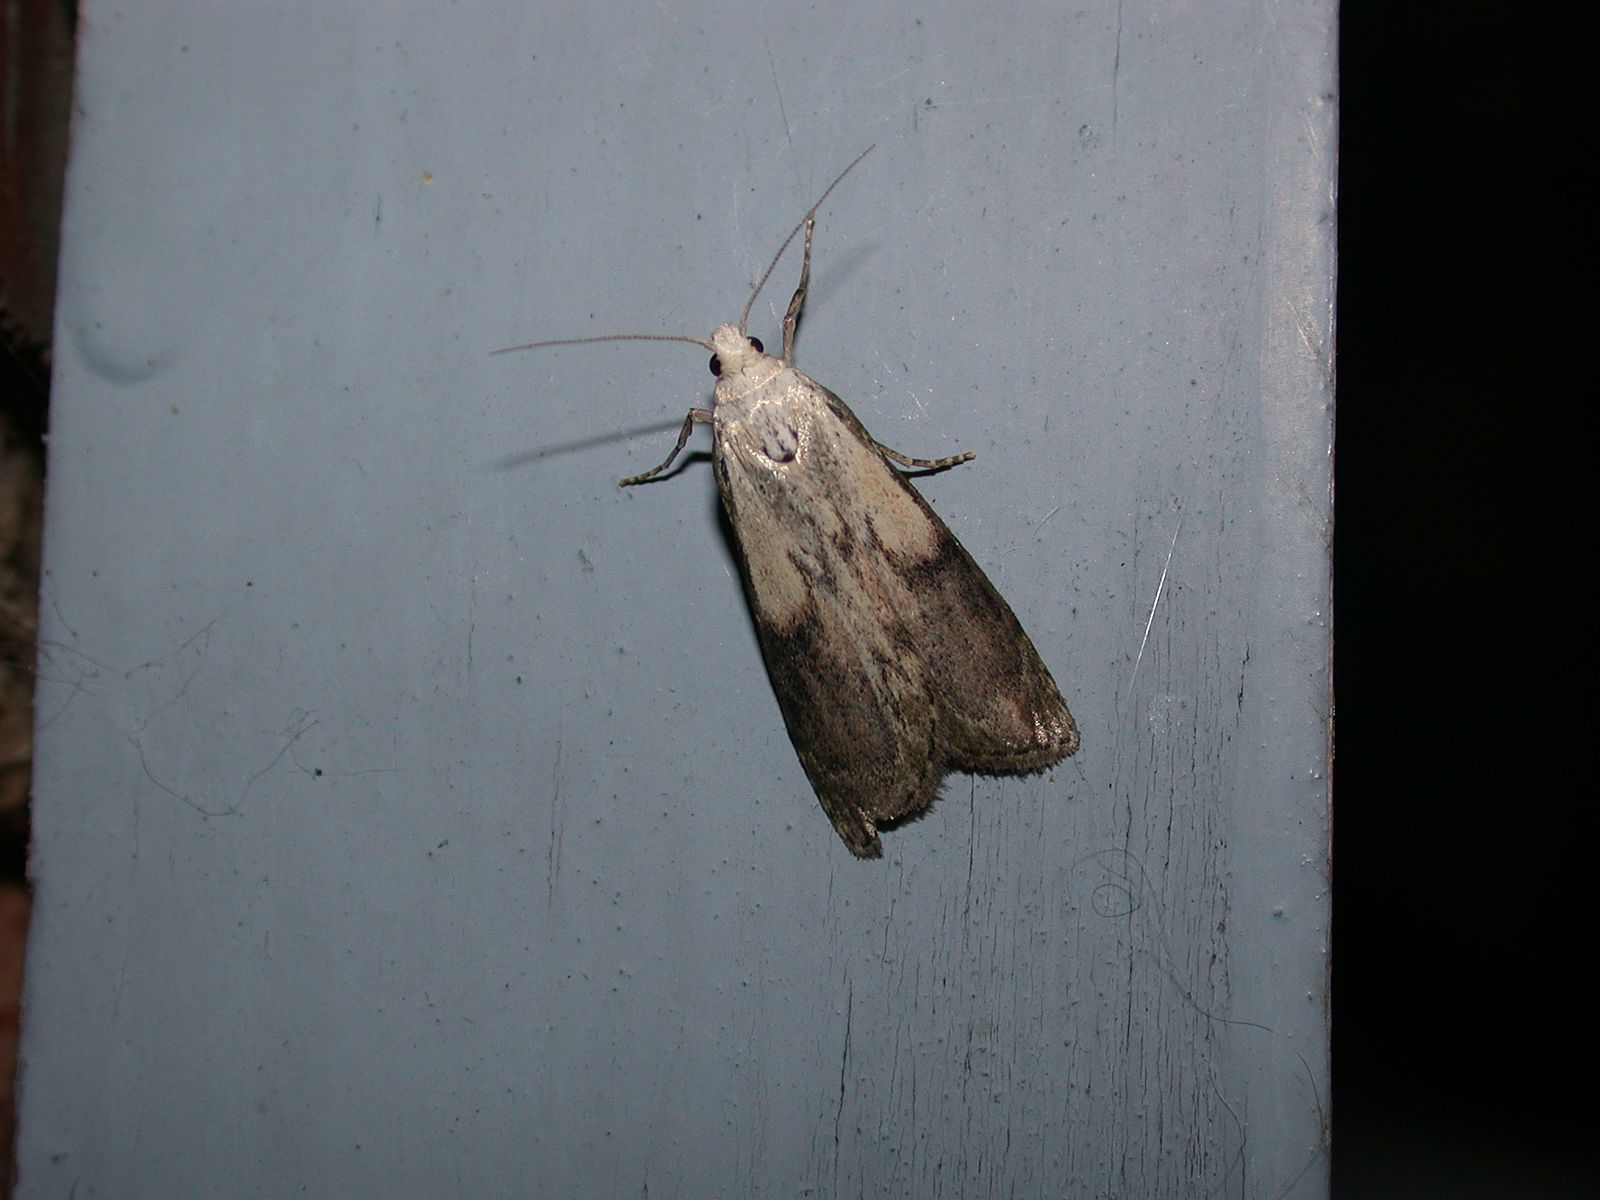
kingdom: Animalia
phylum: Arthropoda
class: Insecta
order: Lepidoptera
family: Pyralidae
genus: Aphomia
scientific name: Aphomia sociella
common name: Bee moth
